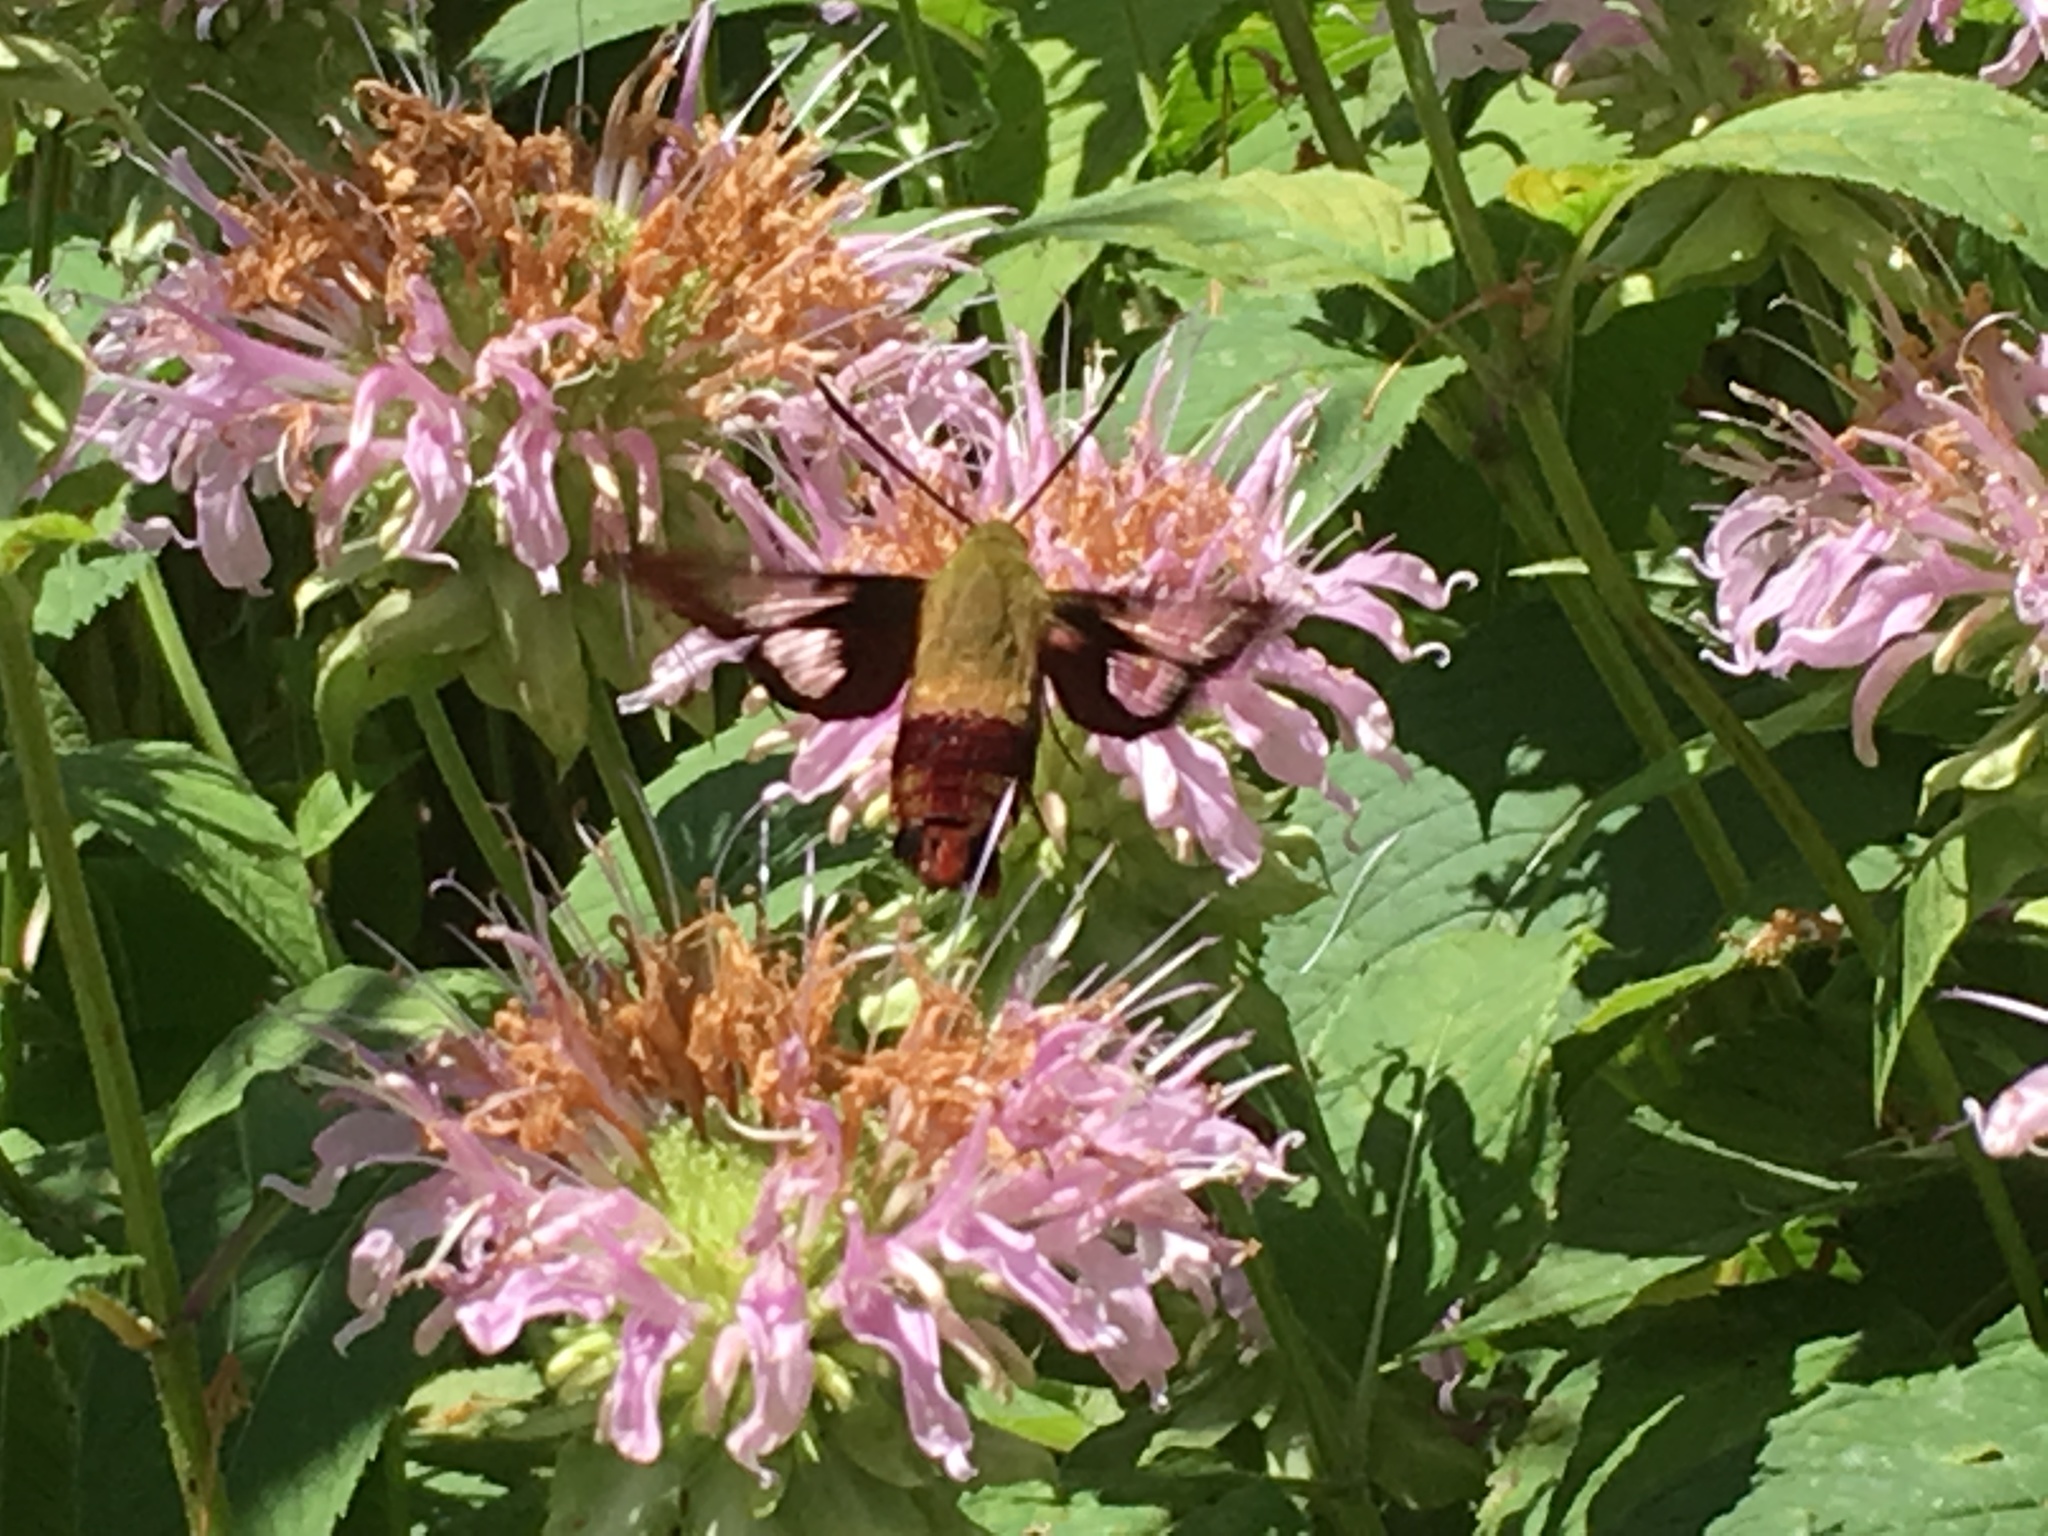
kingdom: Animalia
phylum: Arthropoda
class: Insecta
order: Lepidoptera
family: Sphingidae
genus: Hemaris
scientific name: Hemaris thysbe
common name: Common clear-wing
